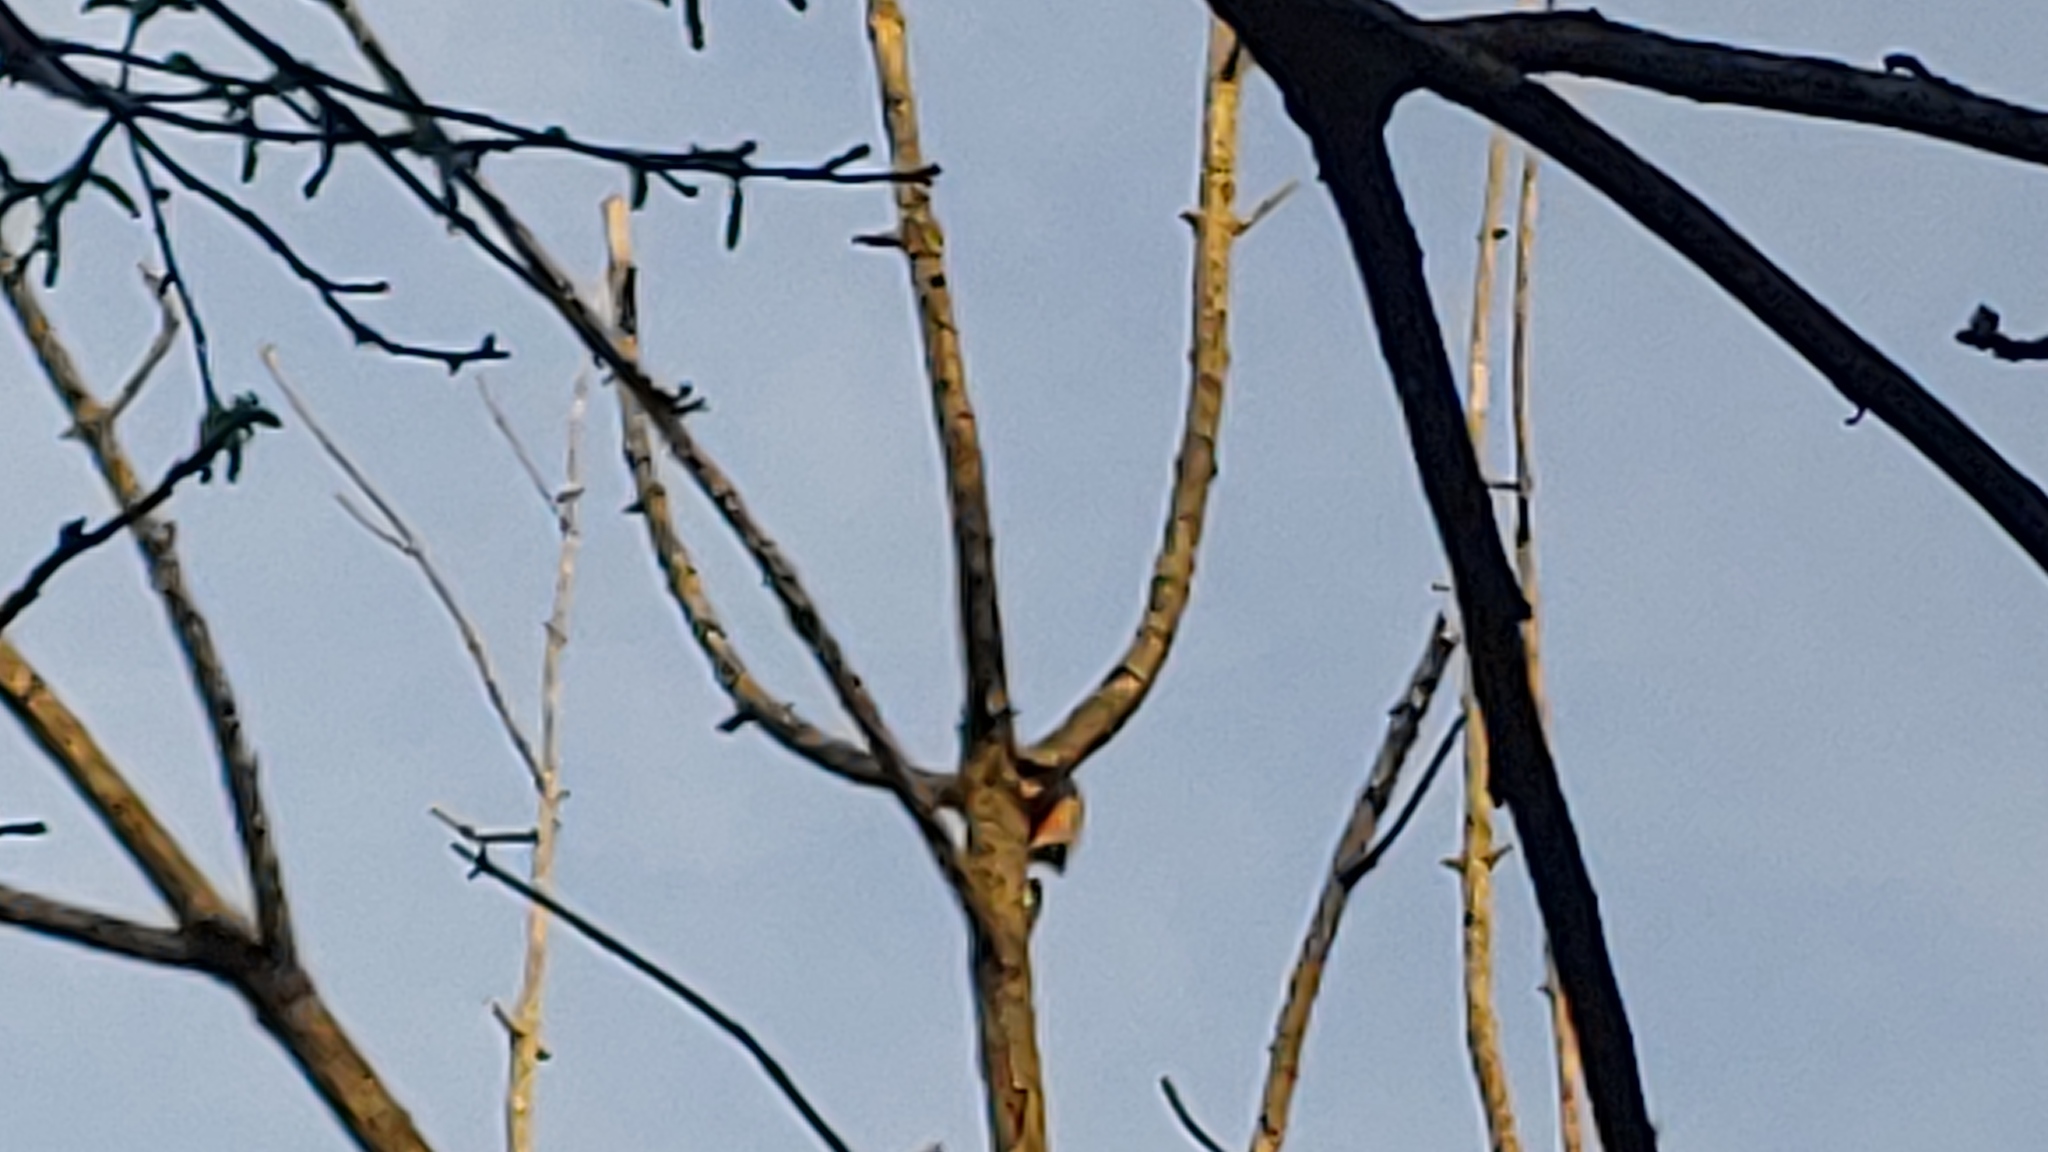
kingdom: Animalia
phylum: Chordata
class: Aves
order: Piciformes
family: Picidae
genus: Melanerpes
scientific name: Melanerpes carolinus
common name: Red-bellied woodpecker
